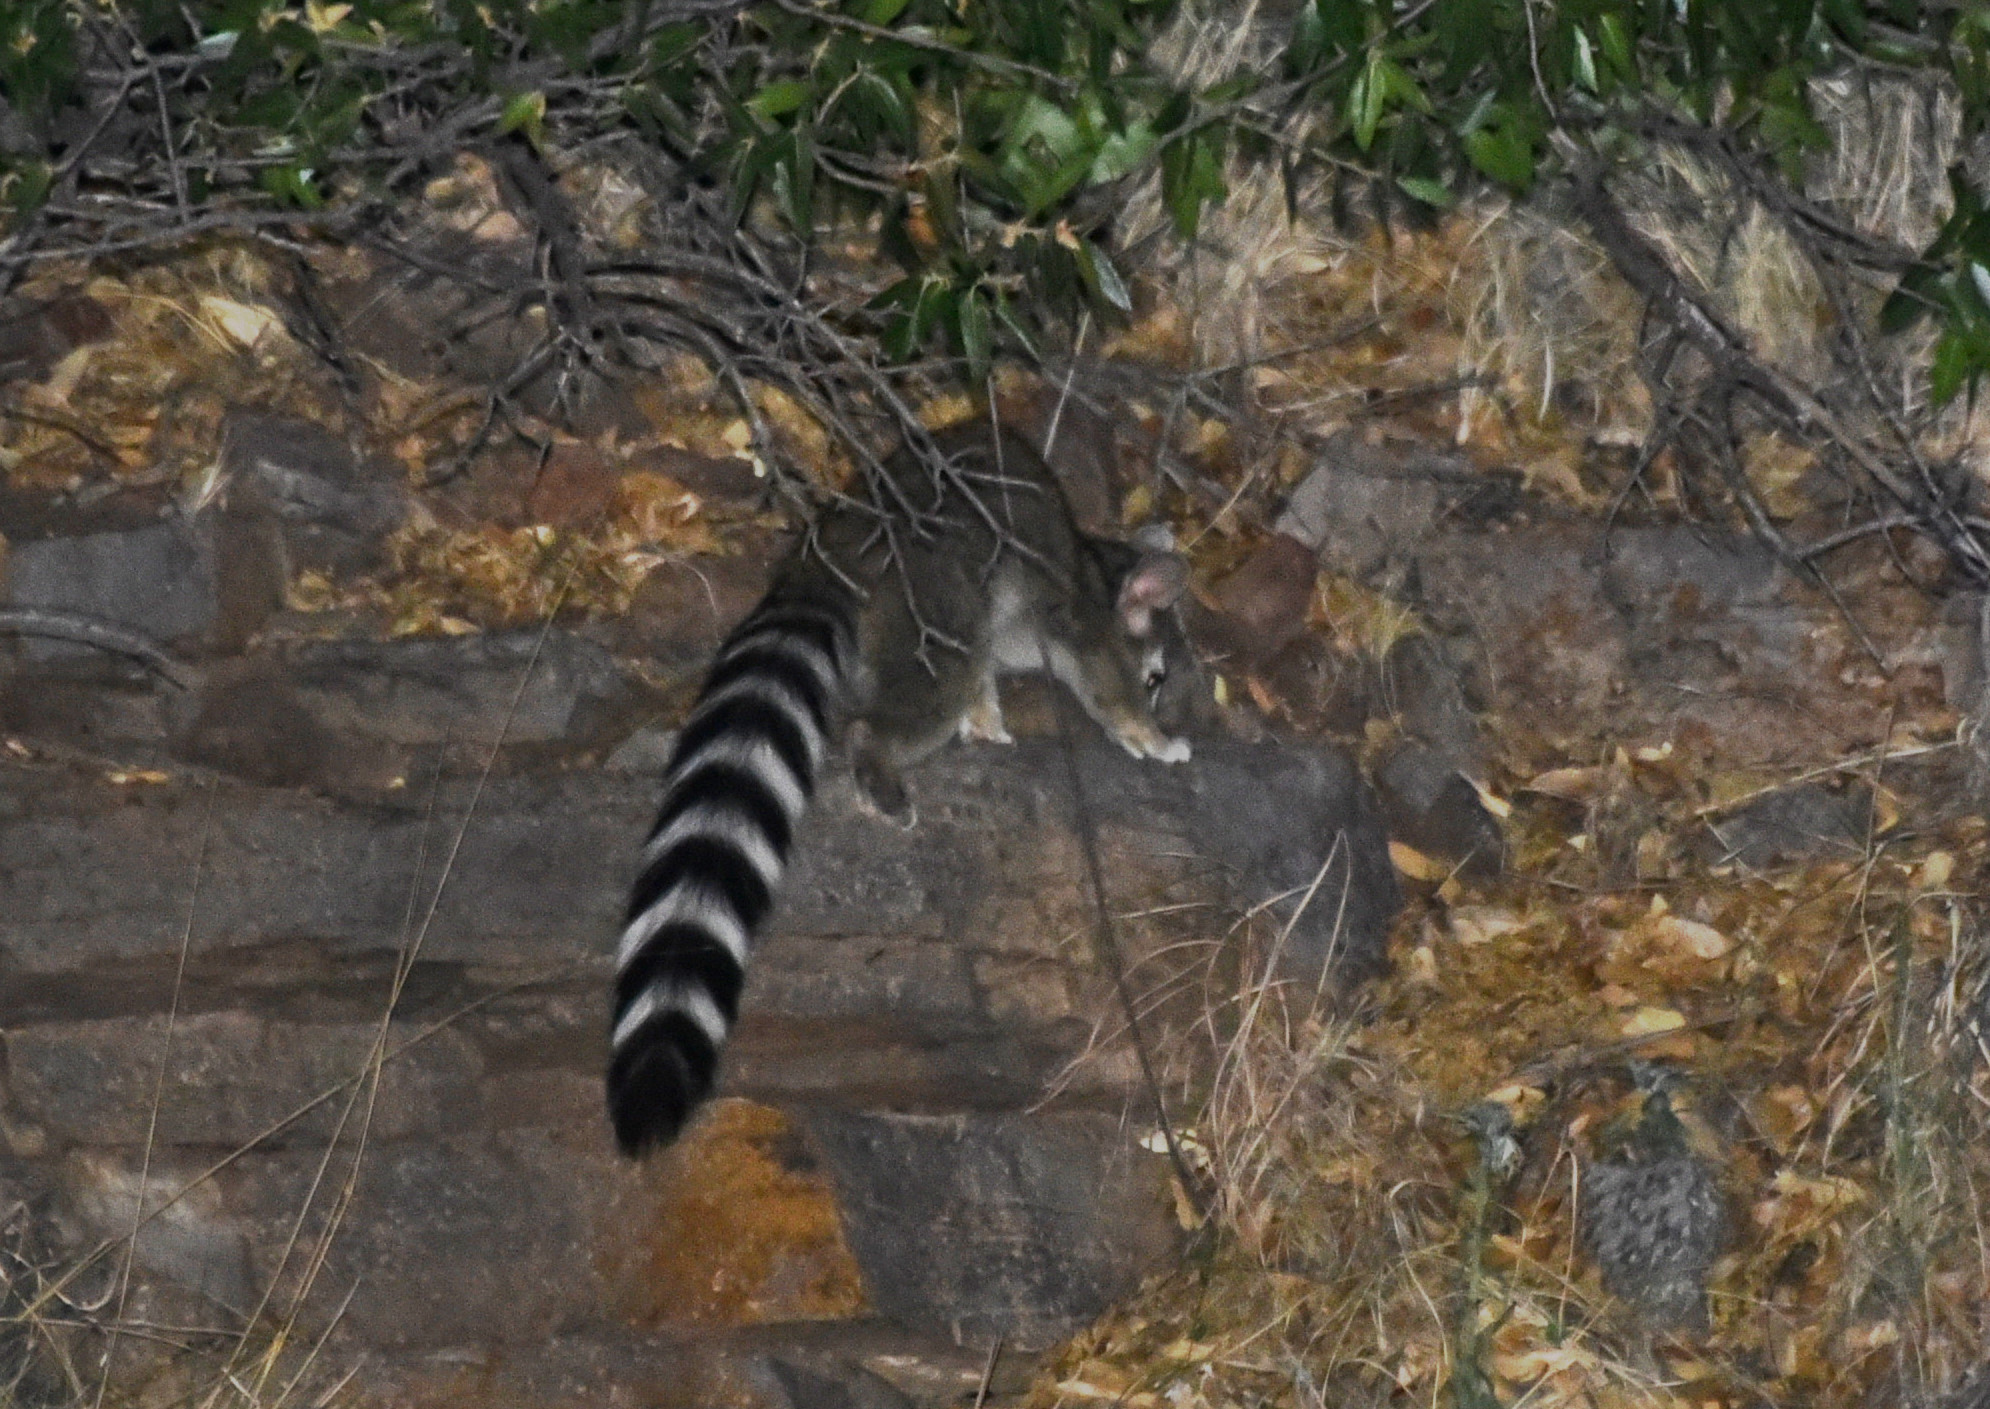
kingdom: Animalia
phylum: Chordata
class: Mammalia
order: Carnivora
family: Procyonidae
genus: Bassariscus
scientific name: Bassariscus astutus
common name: Ringtail
